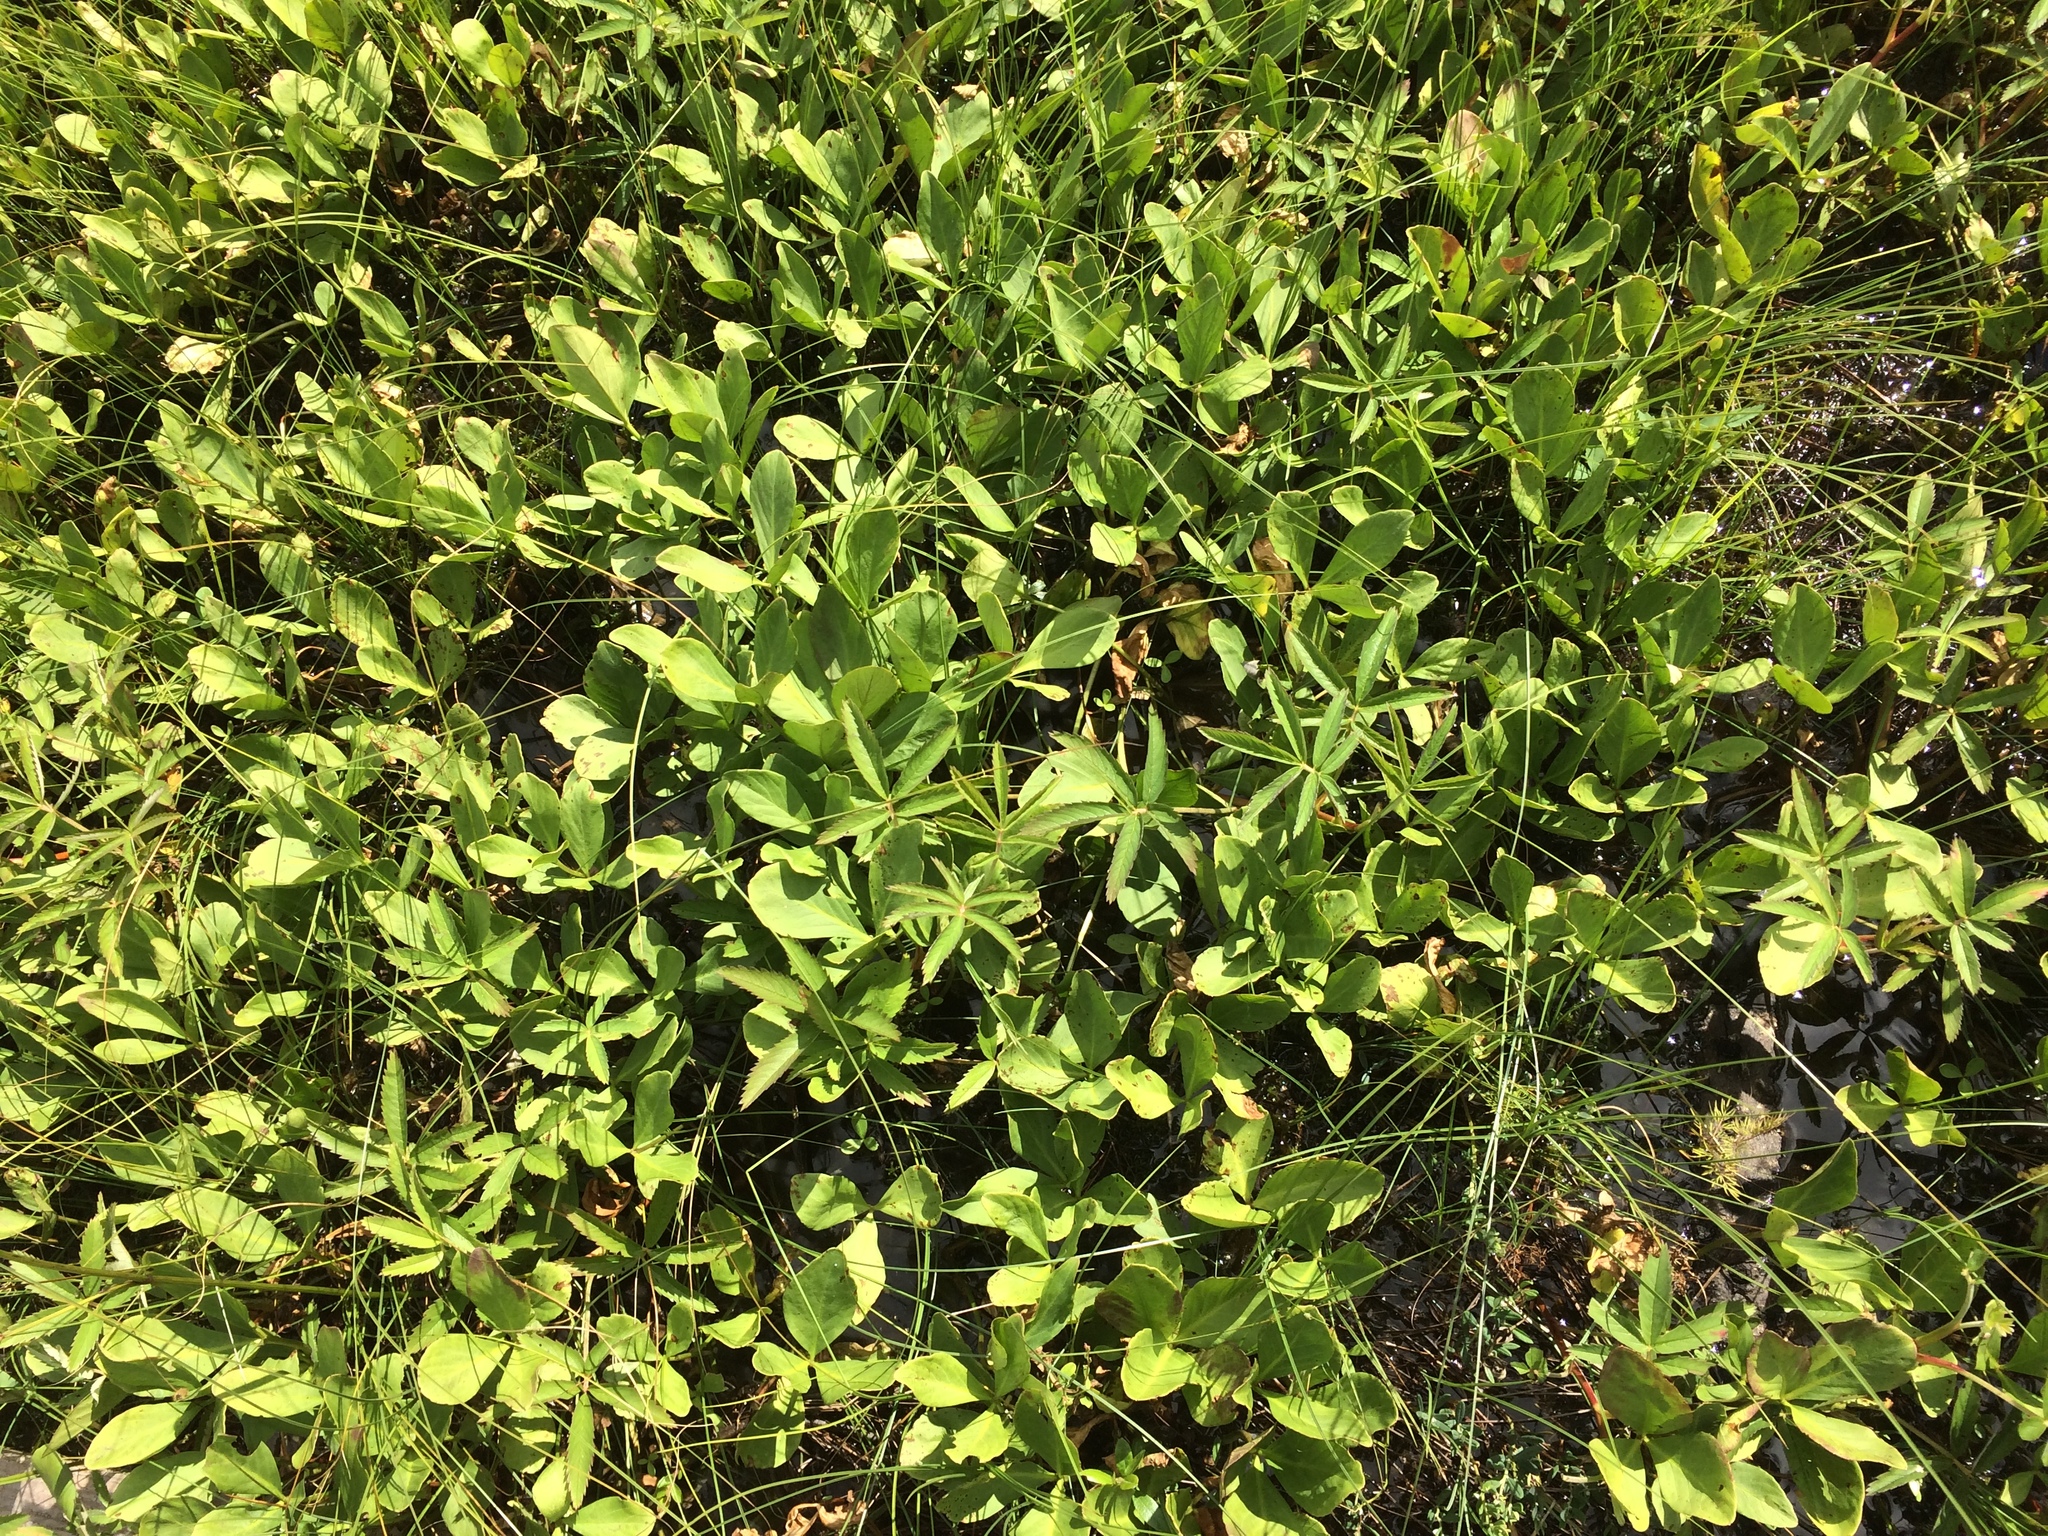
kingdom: Plantae
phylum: Tracheophyta
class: Magnoliopsida
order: Asterales
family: Menyanthaceae
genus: Menyanthes
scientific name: Menyanthes trifoliata
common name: Bogbean
